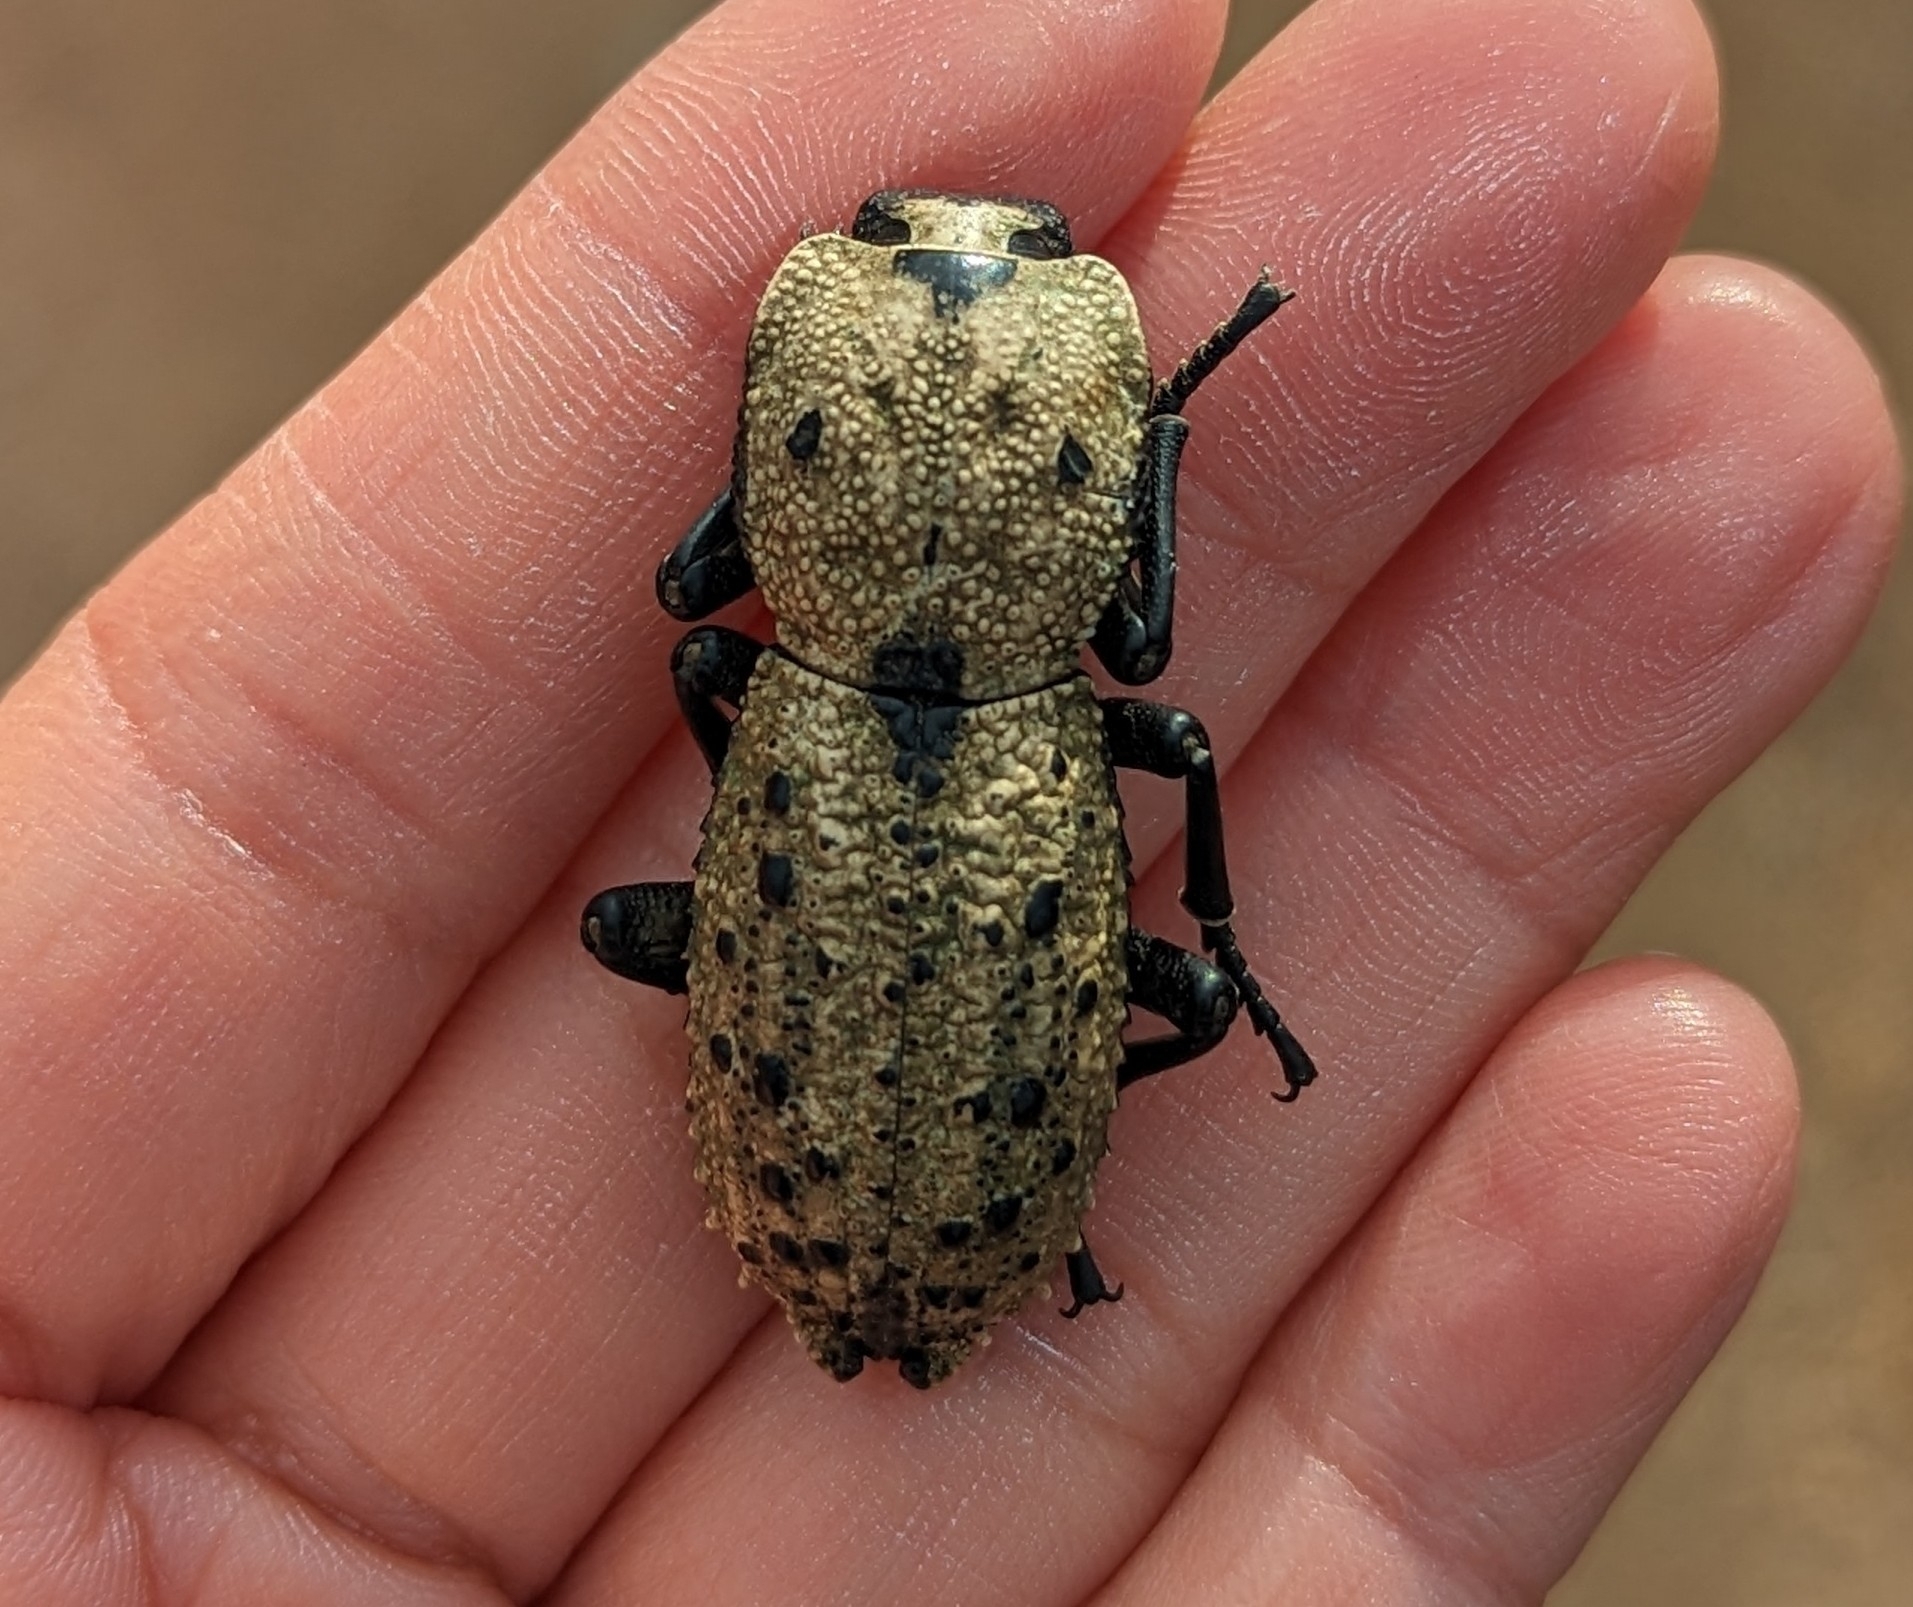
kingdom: Animalia
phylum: Arthropoda
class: Insecta
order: Coleoptera
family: Zopheridae
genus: Zopherus
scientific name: Zopherus
